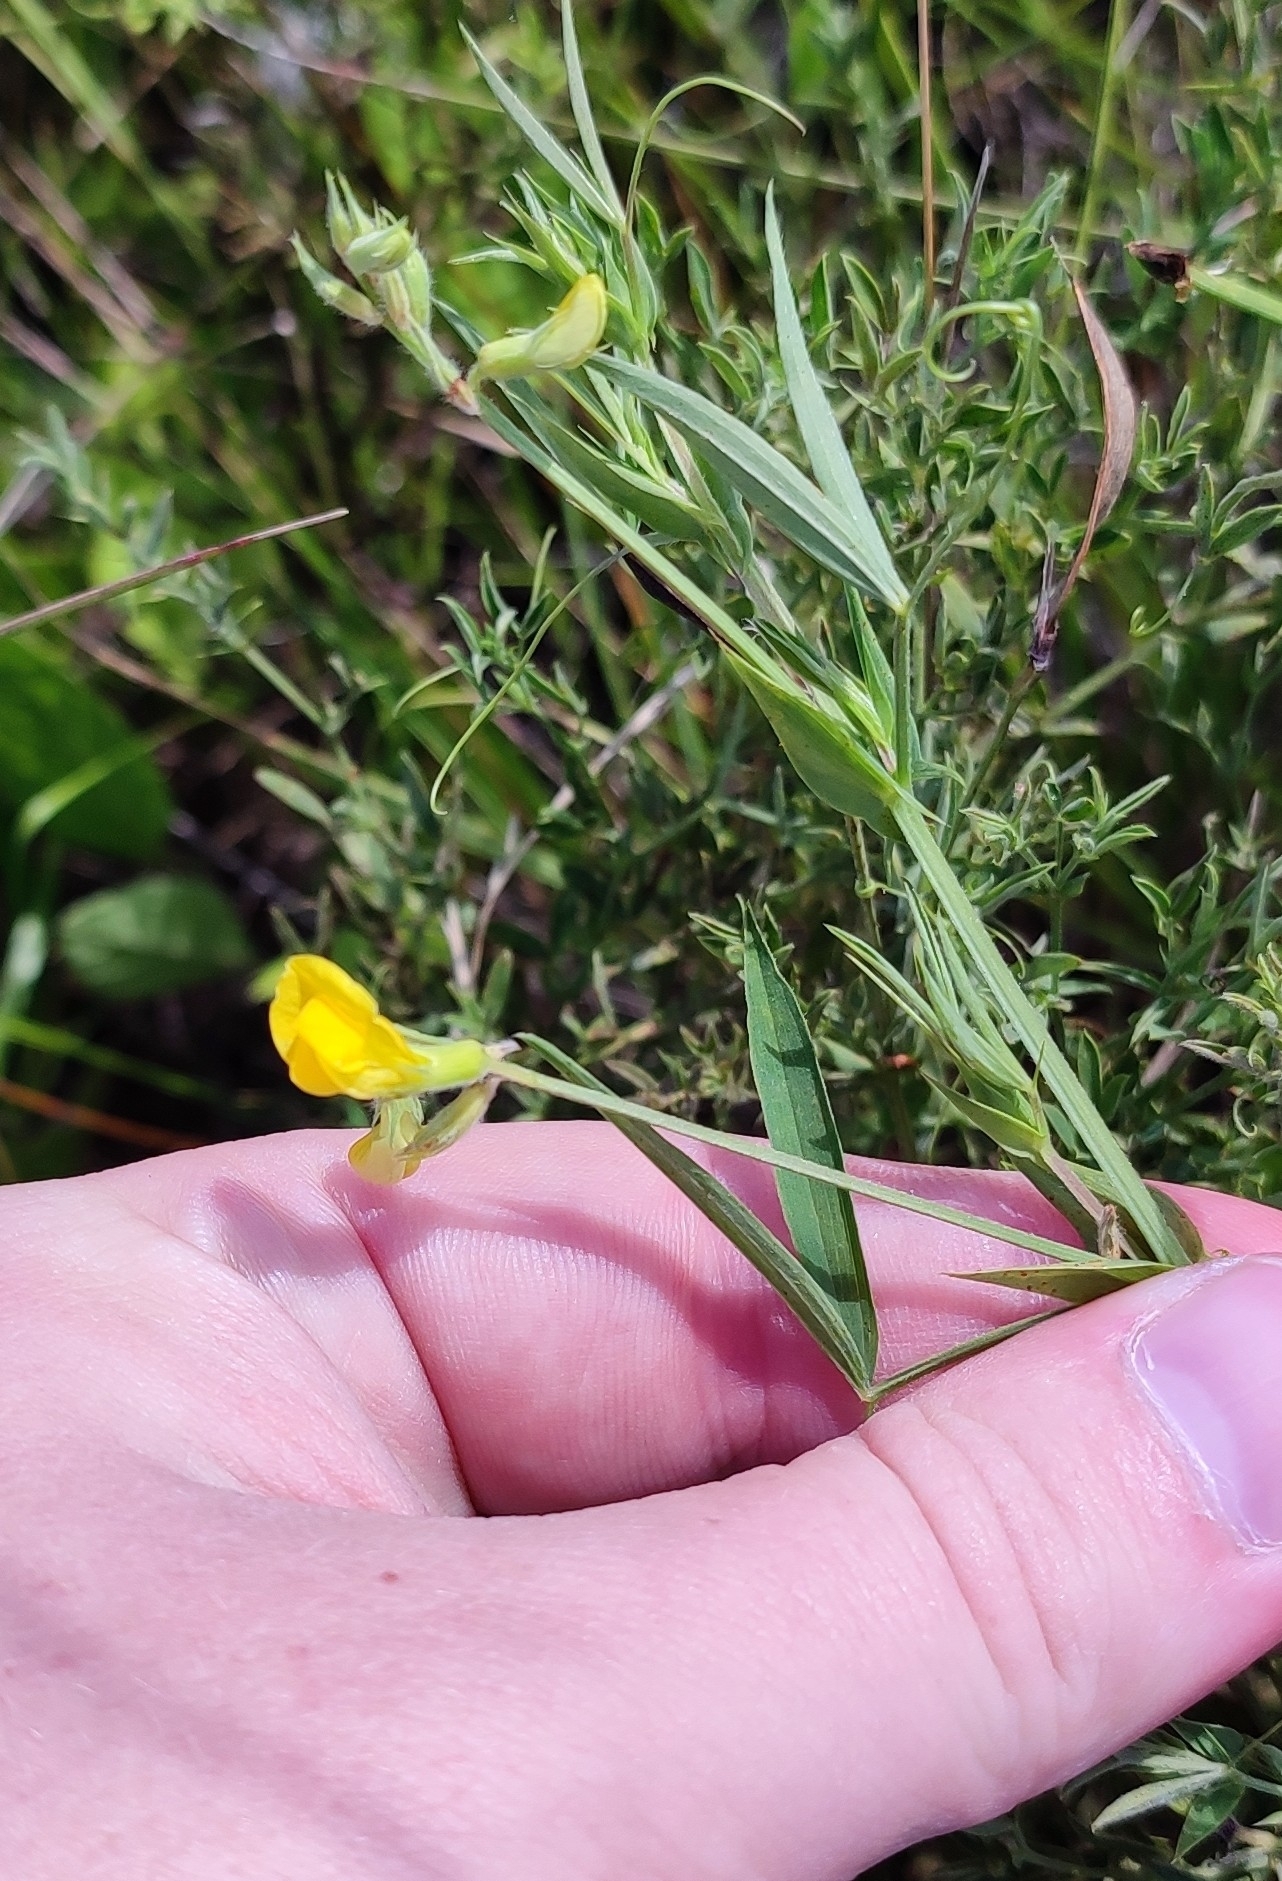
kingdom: Plantae
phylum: Tracheophyta
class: Magnoliopsida
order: Fabales
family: Fabaceae
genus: Lathyrus
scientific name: Lathyrus pratensis
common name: Meadow vetchling
